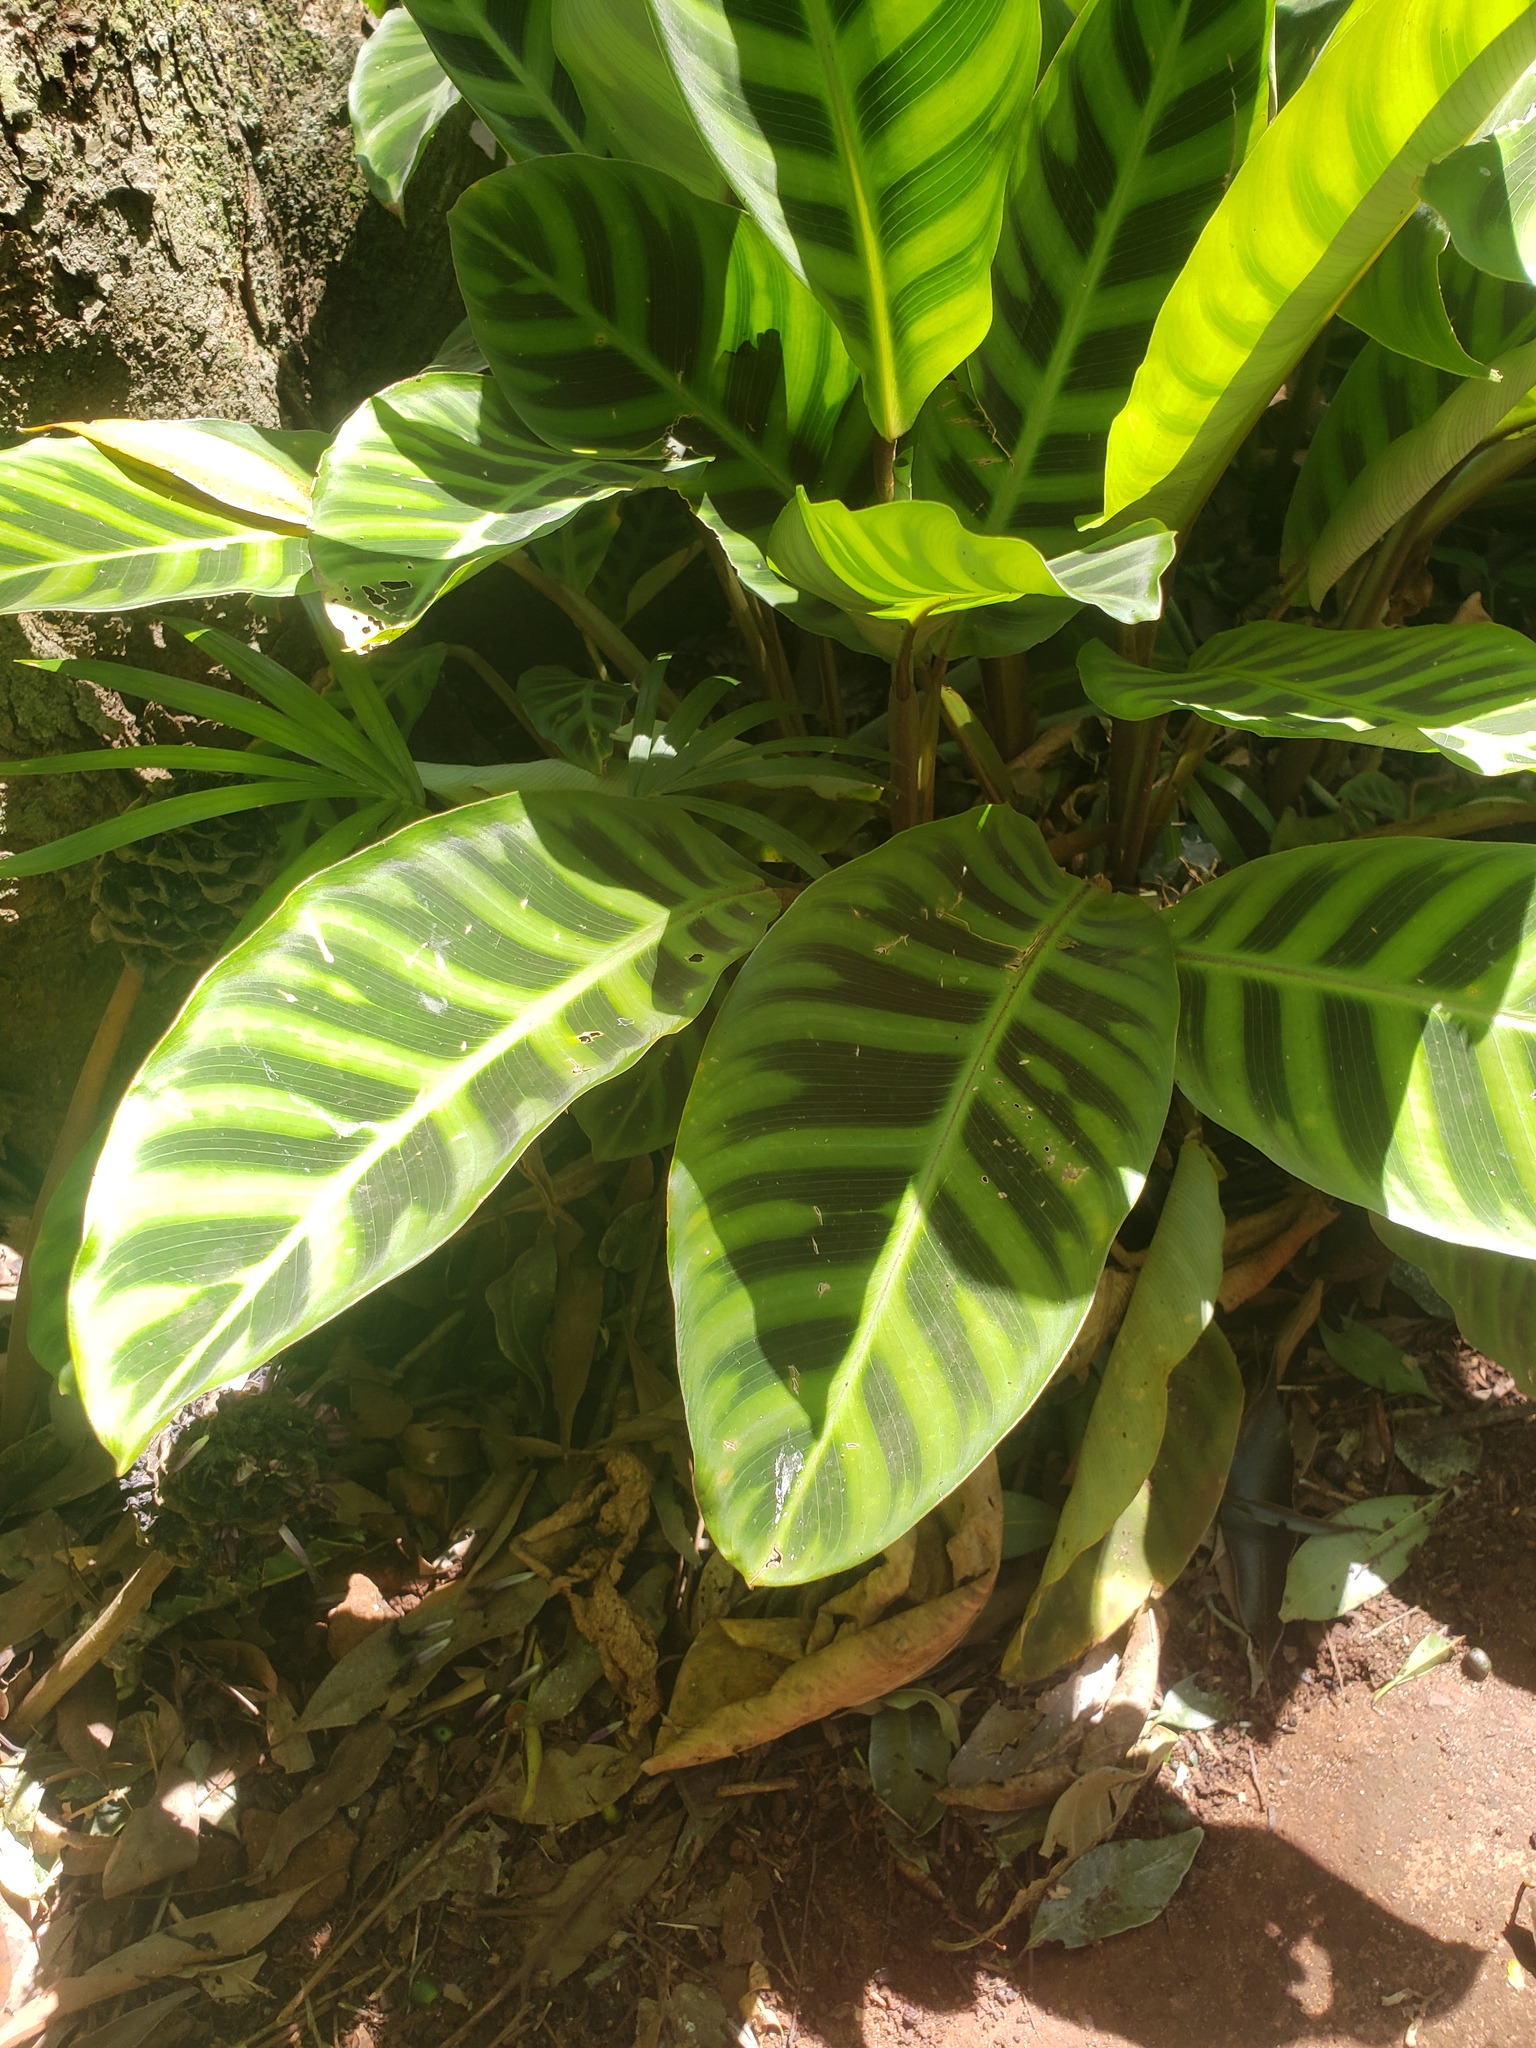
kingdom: Plantae
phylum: Tracheophyta
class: Liliopsida
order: Zingiberales
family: Marantaceae
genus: Goeppertia
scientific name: Goeppertia zebrina
